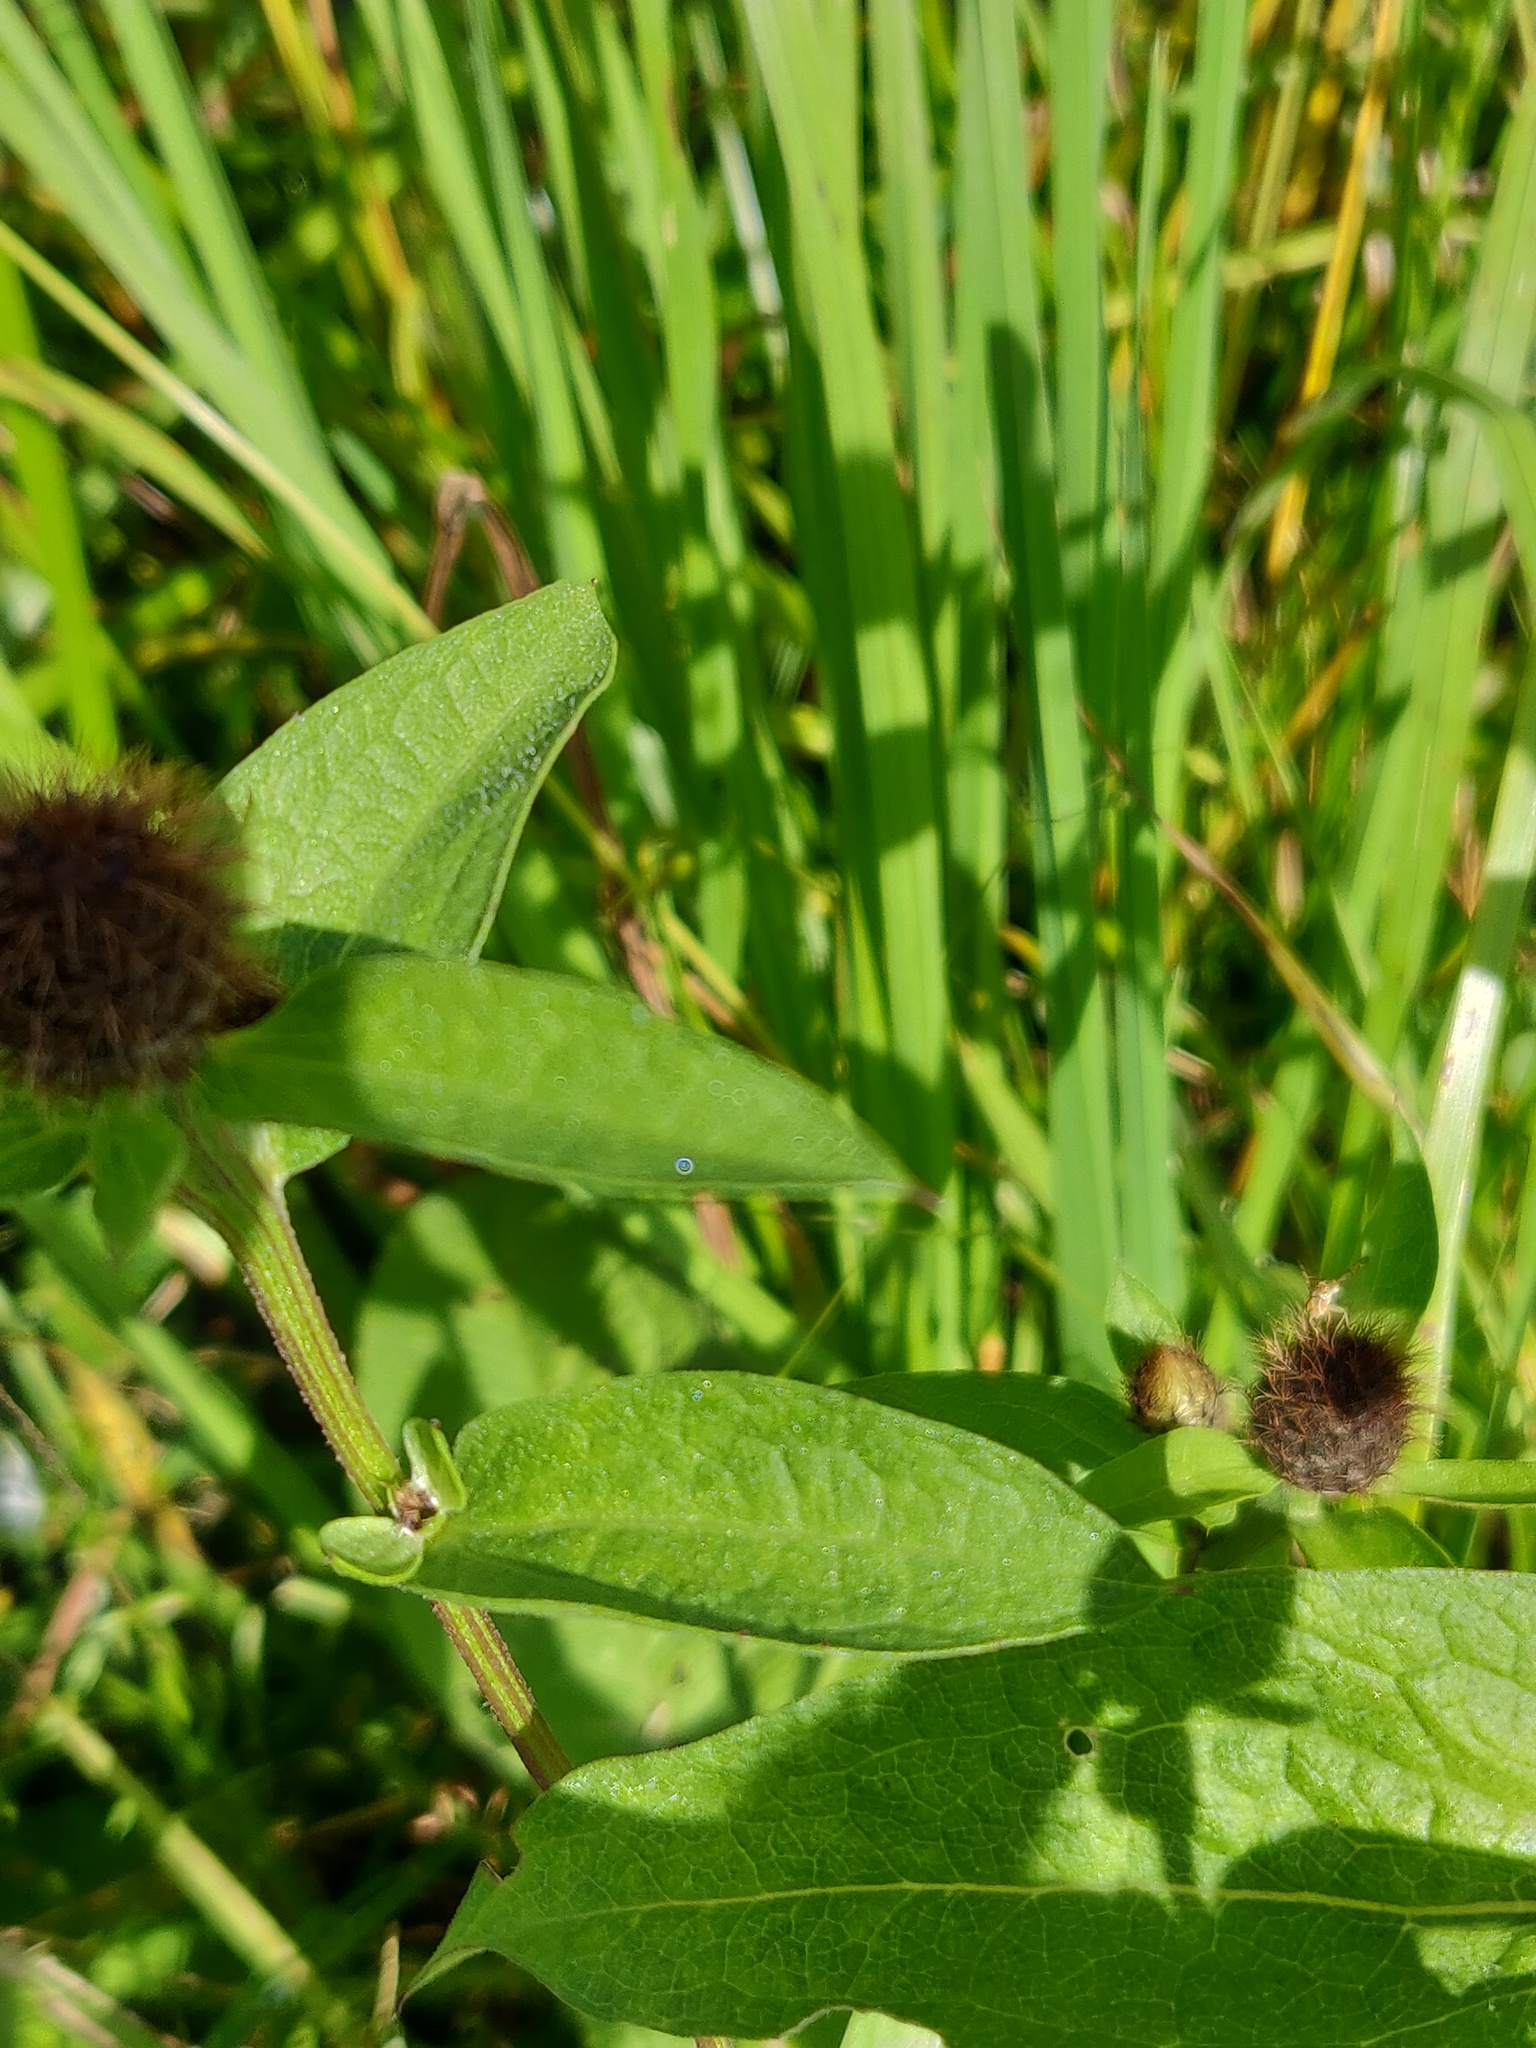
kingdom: Plantae
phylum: Tracheophyta
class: Magnoliopsida
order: Asterales
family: Asteraceae
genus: Centaurea
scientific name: Centaurea phrygia
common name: Wig knapweed
